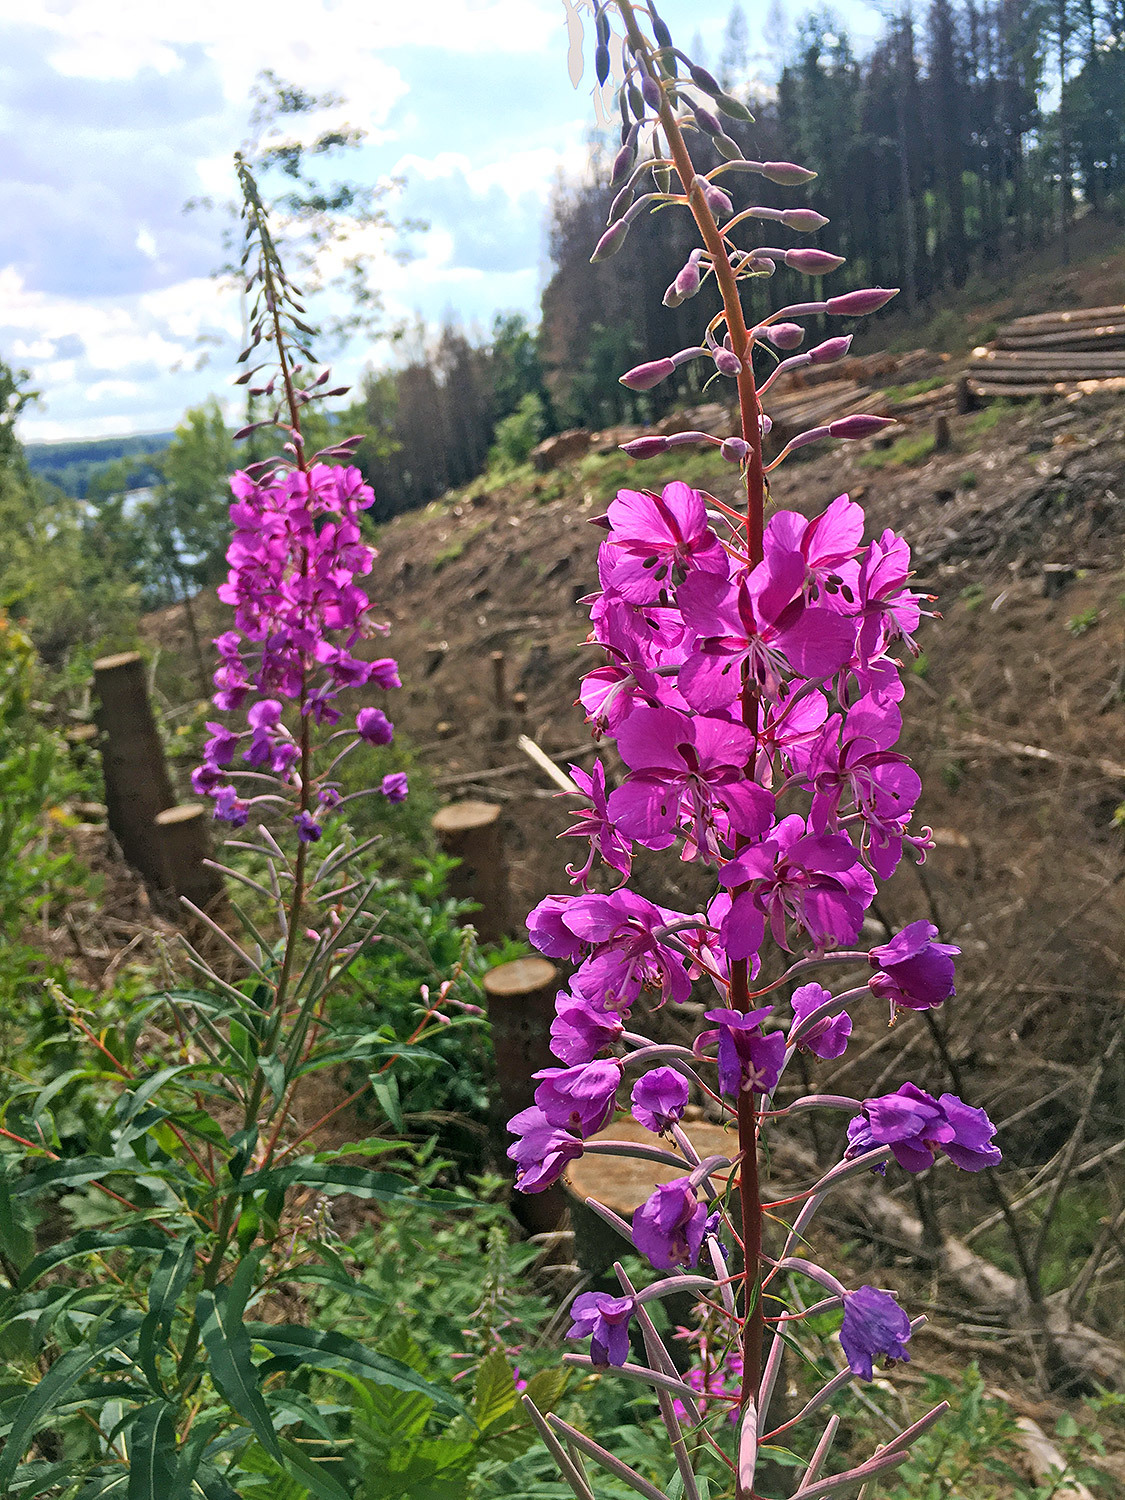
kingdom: Plantae
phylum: Tracheophyta
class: Magnoliopsida
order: Myrtales
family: Onagraceae
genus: Chamaenerion
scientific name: Chamaenerion angustifolium
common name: Fireweed
